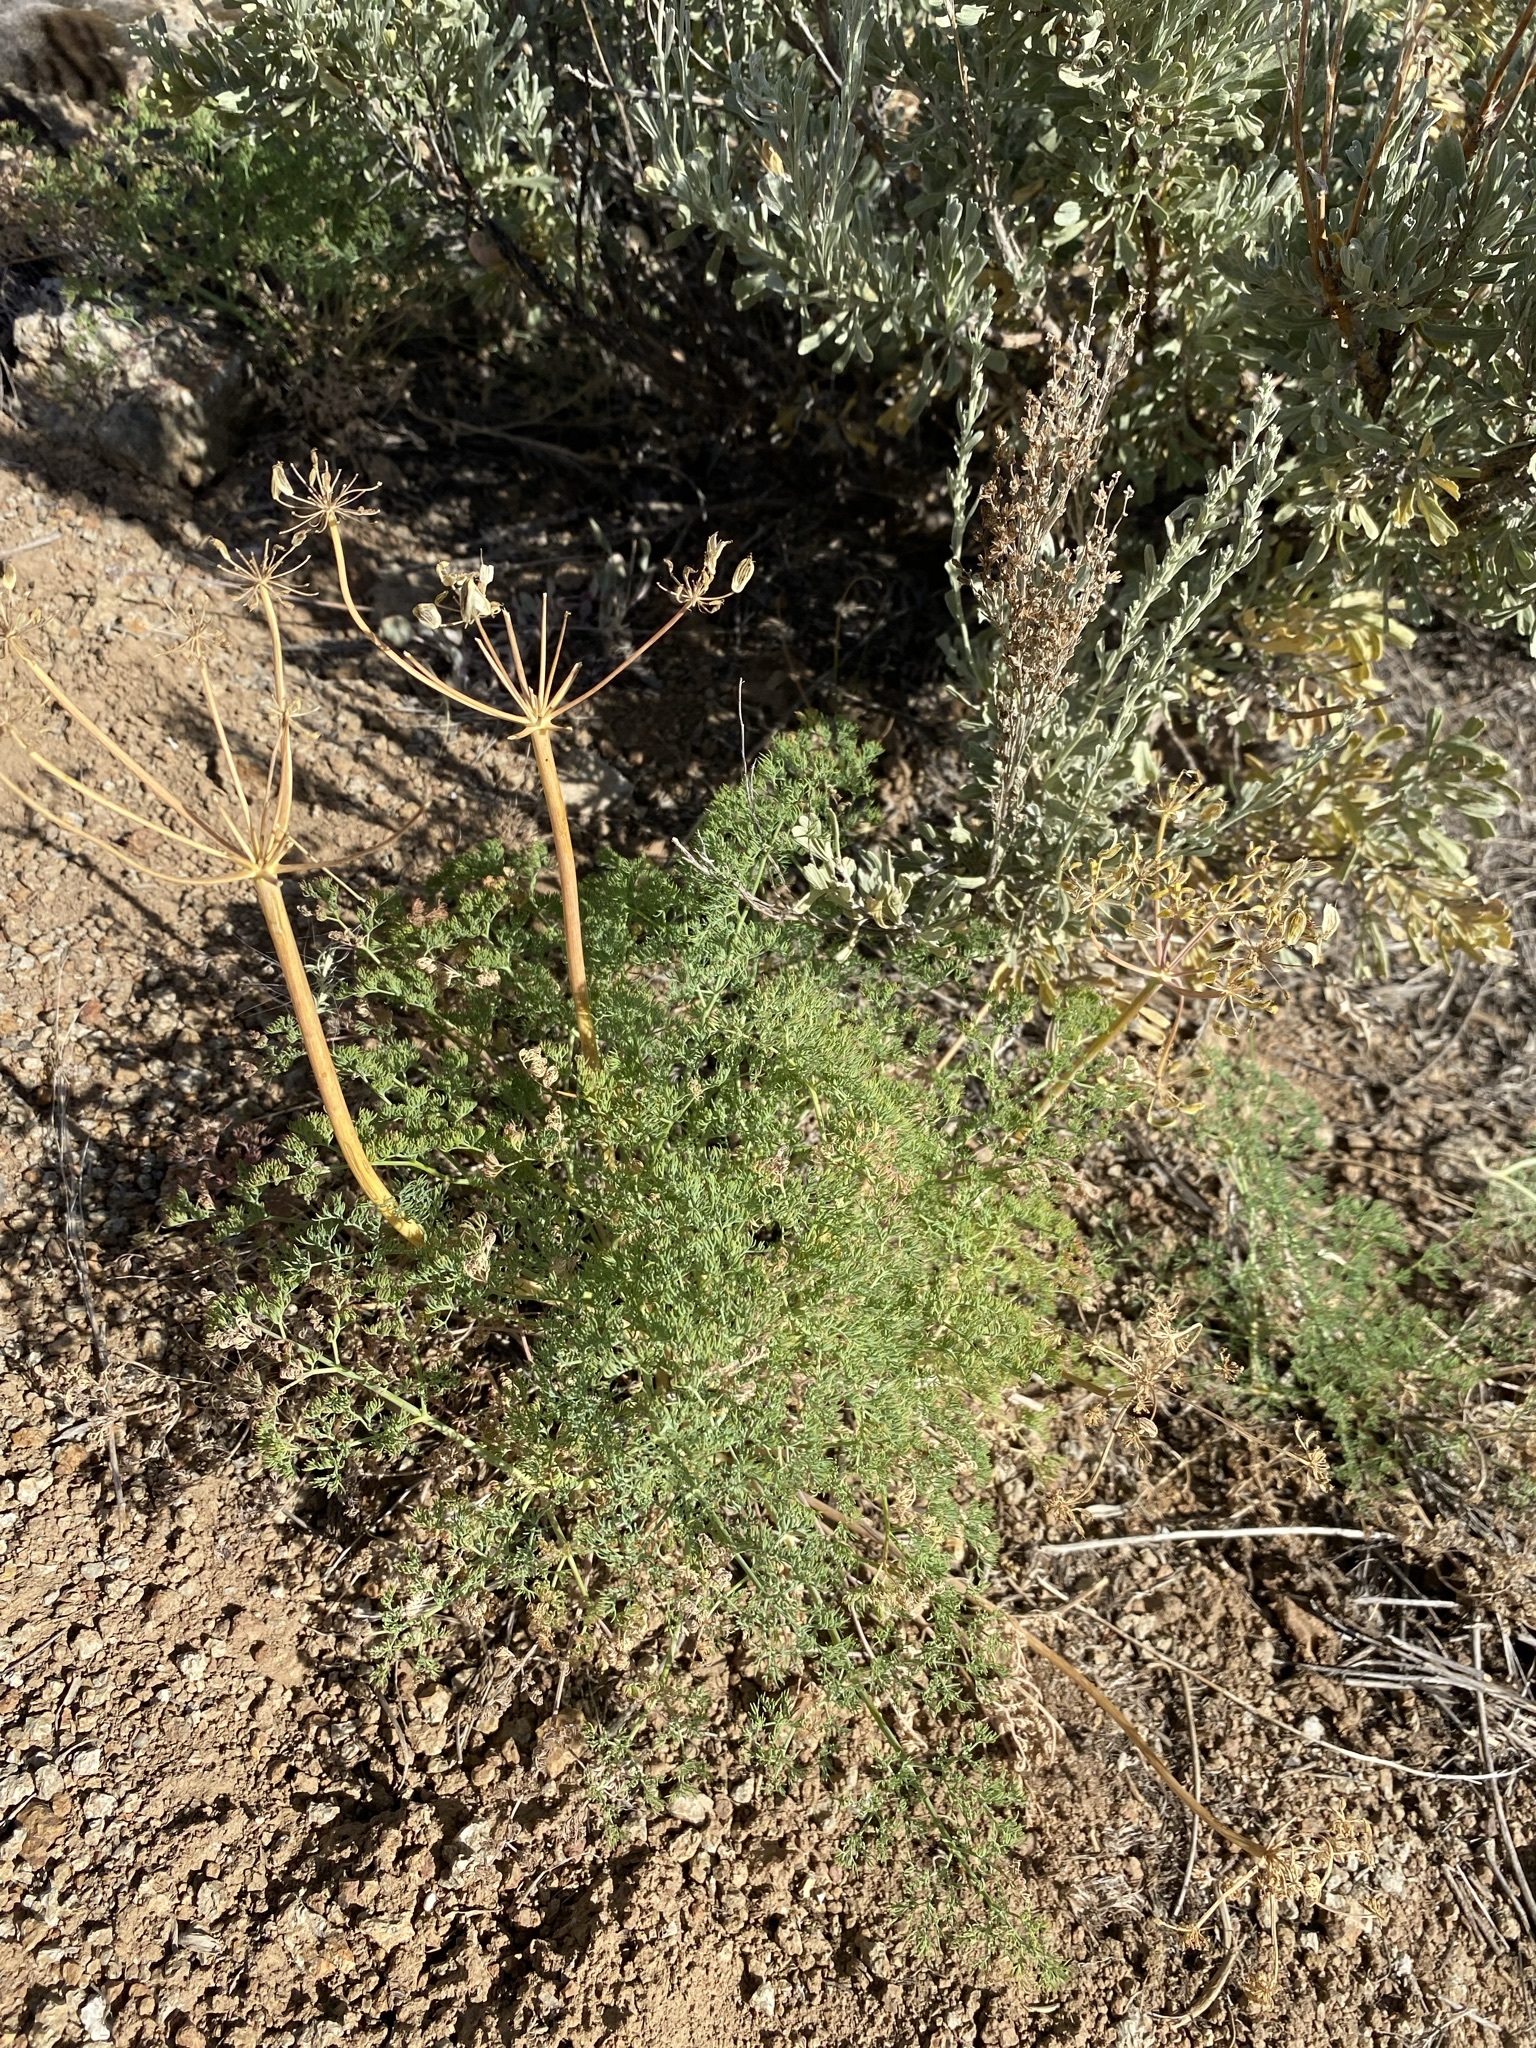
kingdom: Plantae
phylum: Tracheophyta
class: Magnoliopsida
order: Apiales
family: Apiaceae
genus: Lomatium
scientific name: Lomatium papilioniferum
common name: Butterfly lomatium
